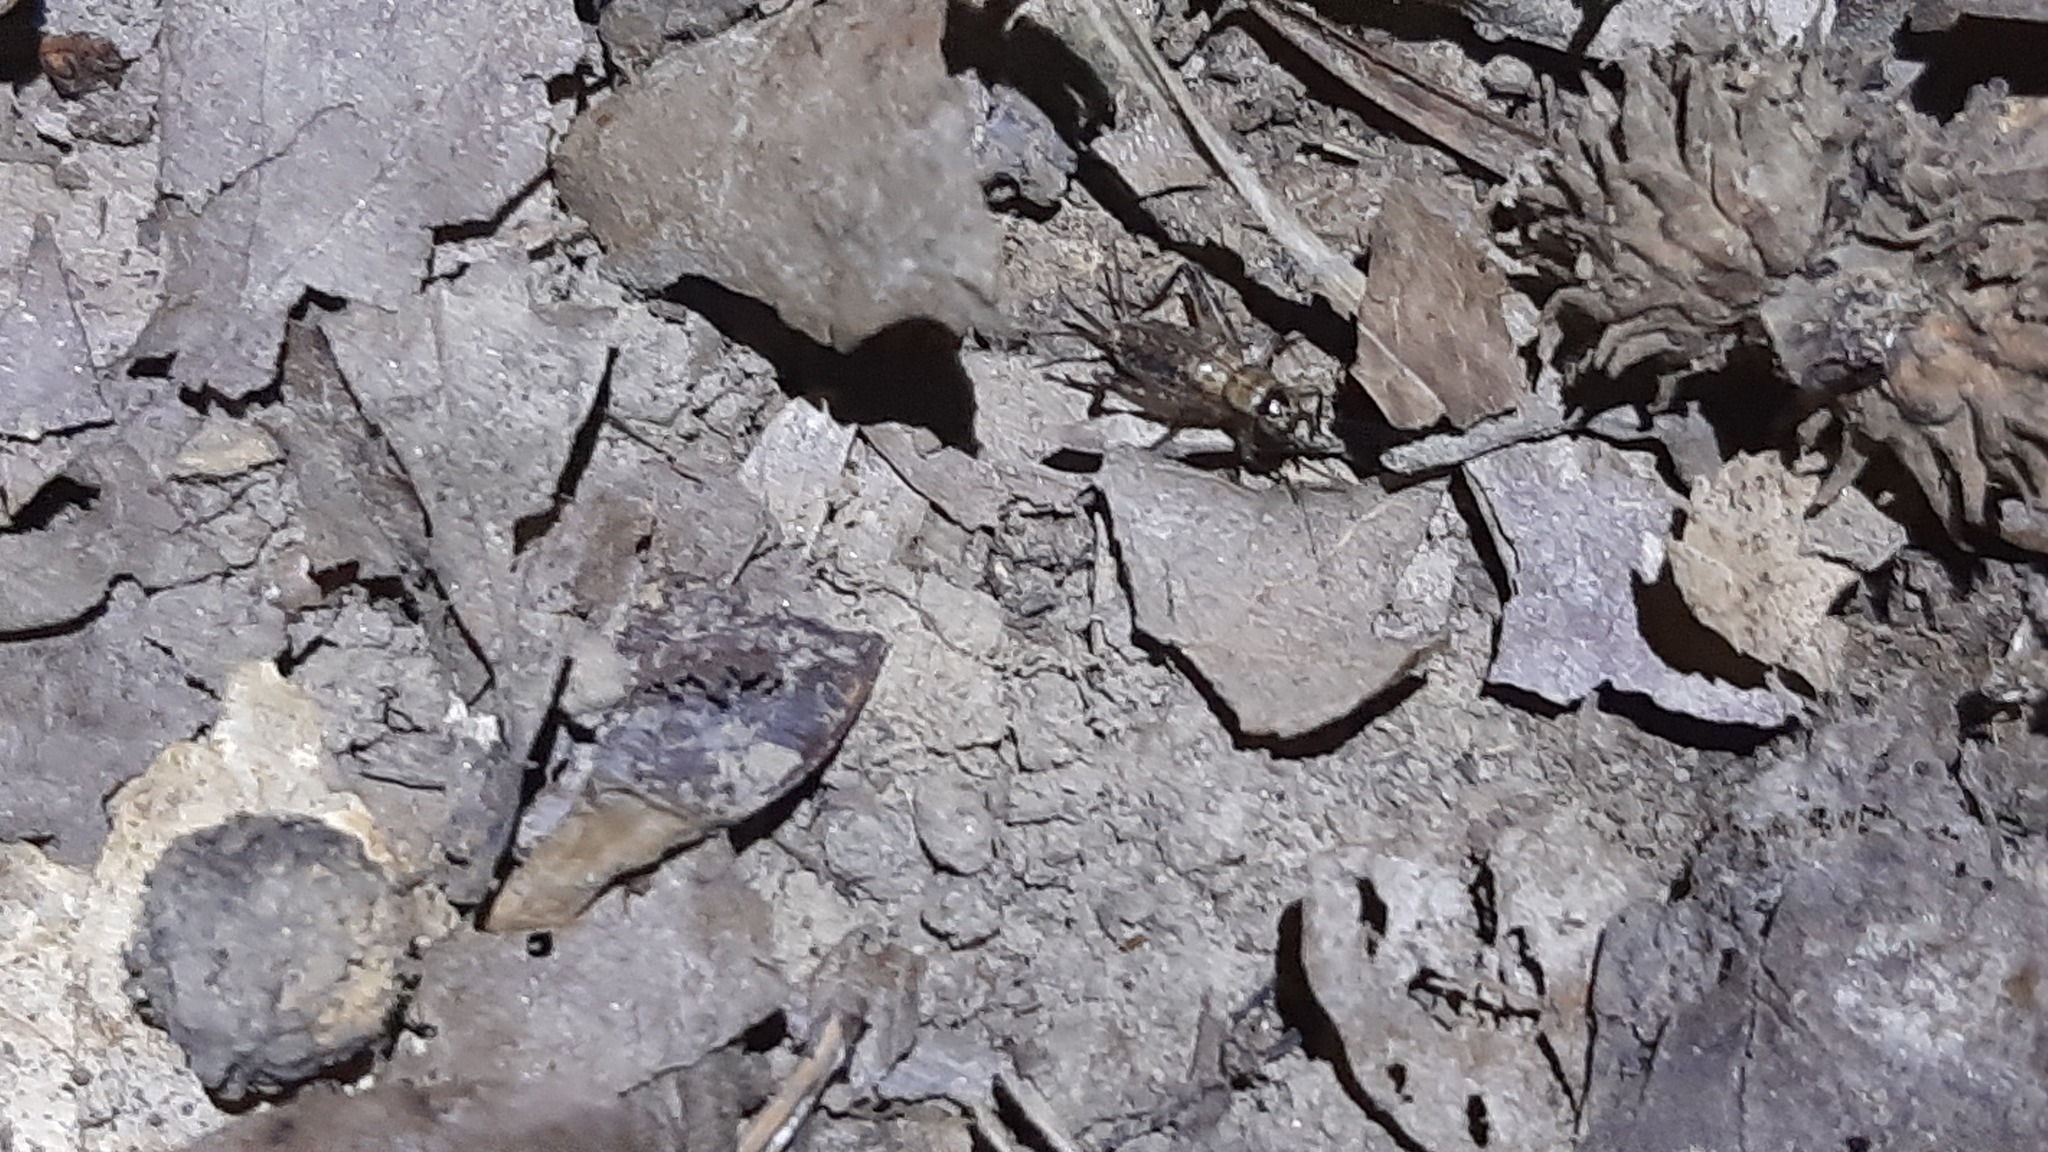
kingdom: Animalia
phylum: Arthropoda
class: Insecta
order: Orthoptera
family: Trigonidiidae
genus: Nemobius
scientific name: Nemobius sylvestris
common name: Wood-cricket
